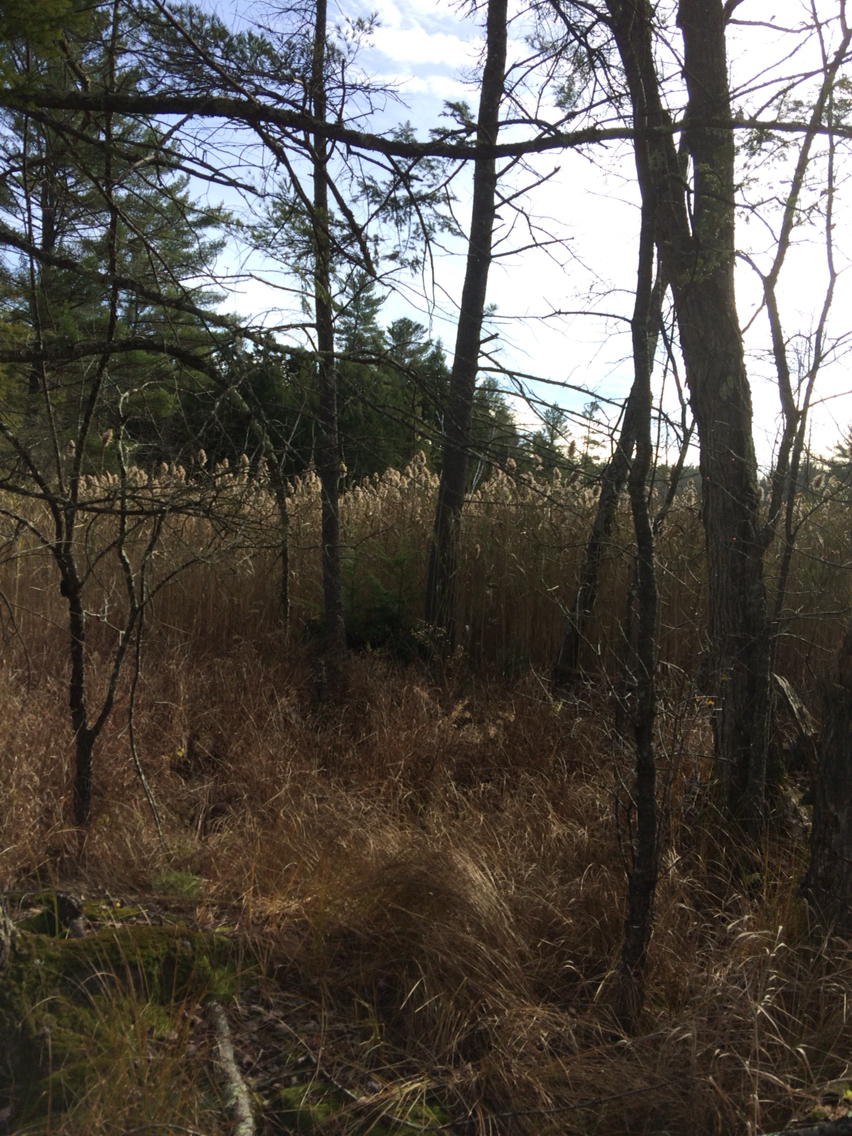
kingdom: Plantae
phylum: Tracheophyta
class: Liliopsida
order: Poales
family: Poaceae
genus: Phragmites
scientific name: Phragmites australis
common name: Common reed
